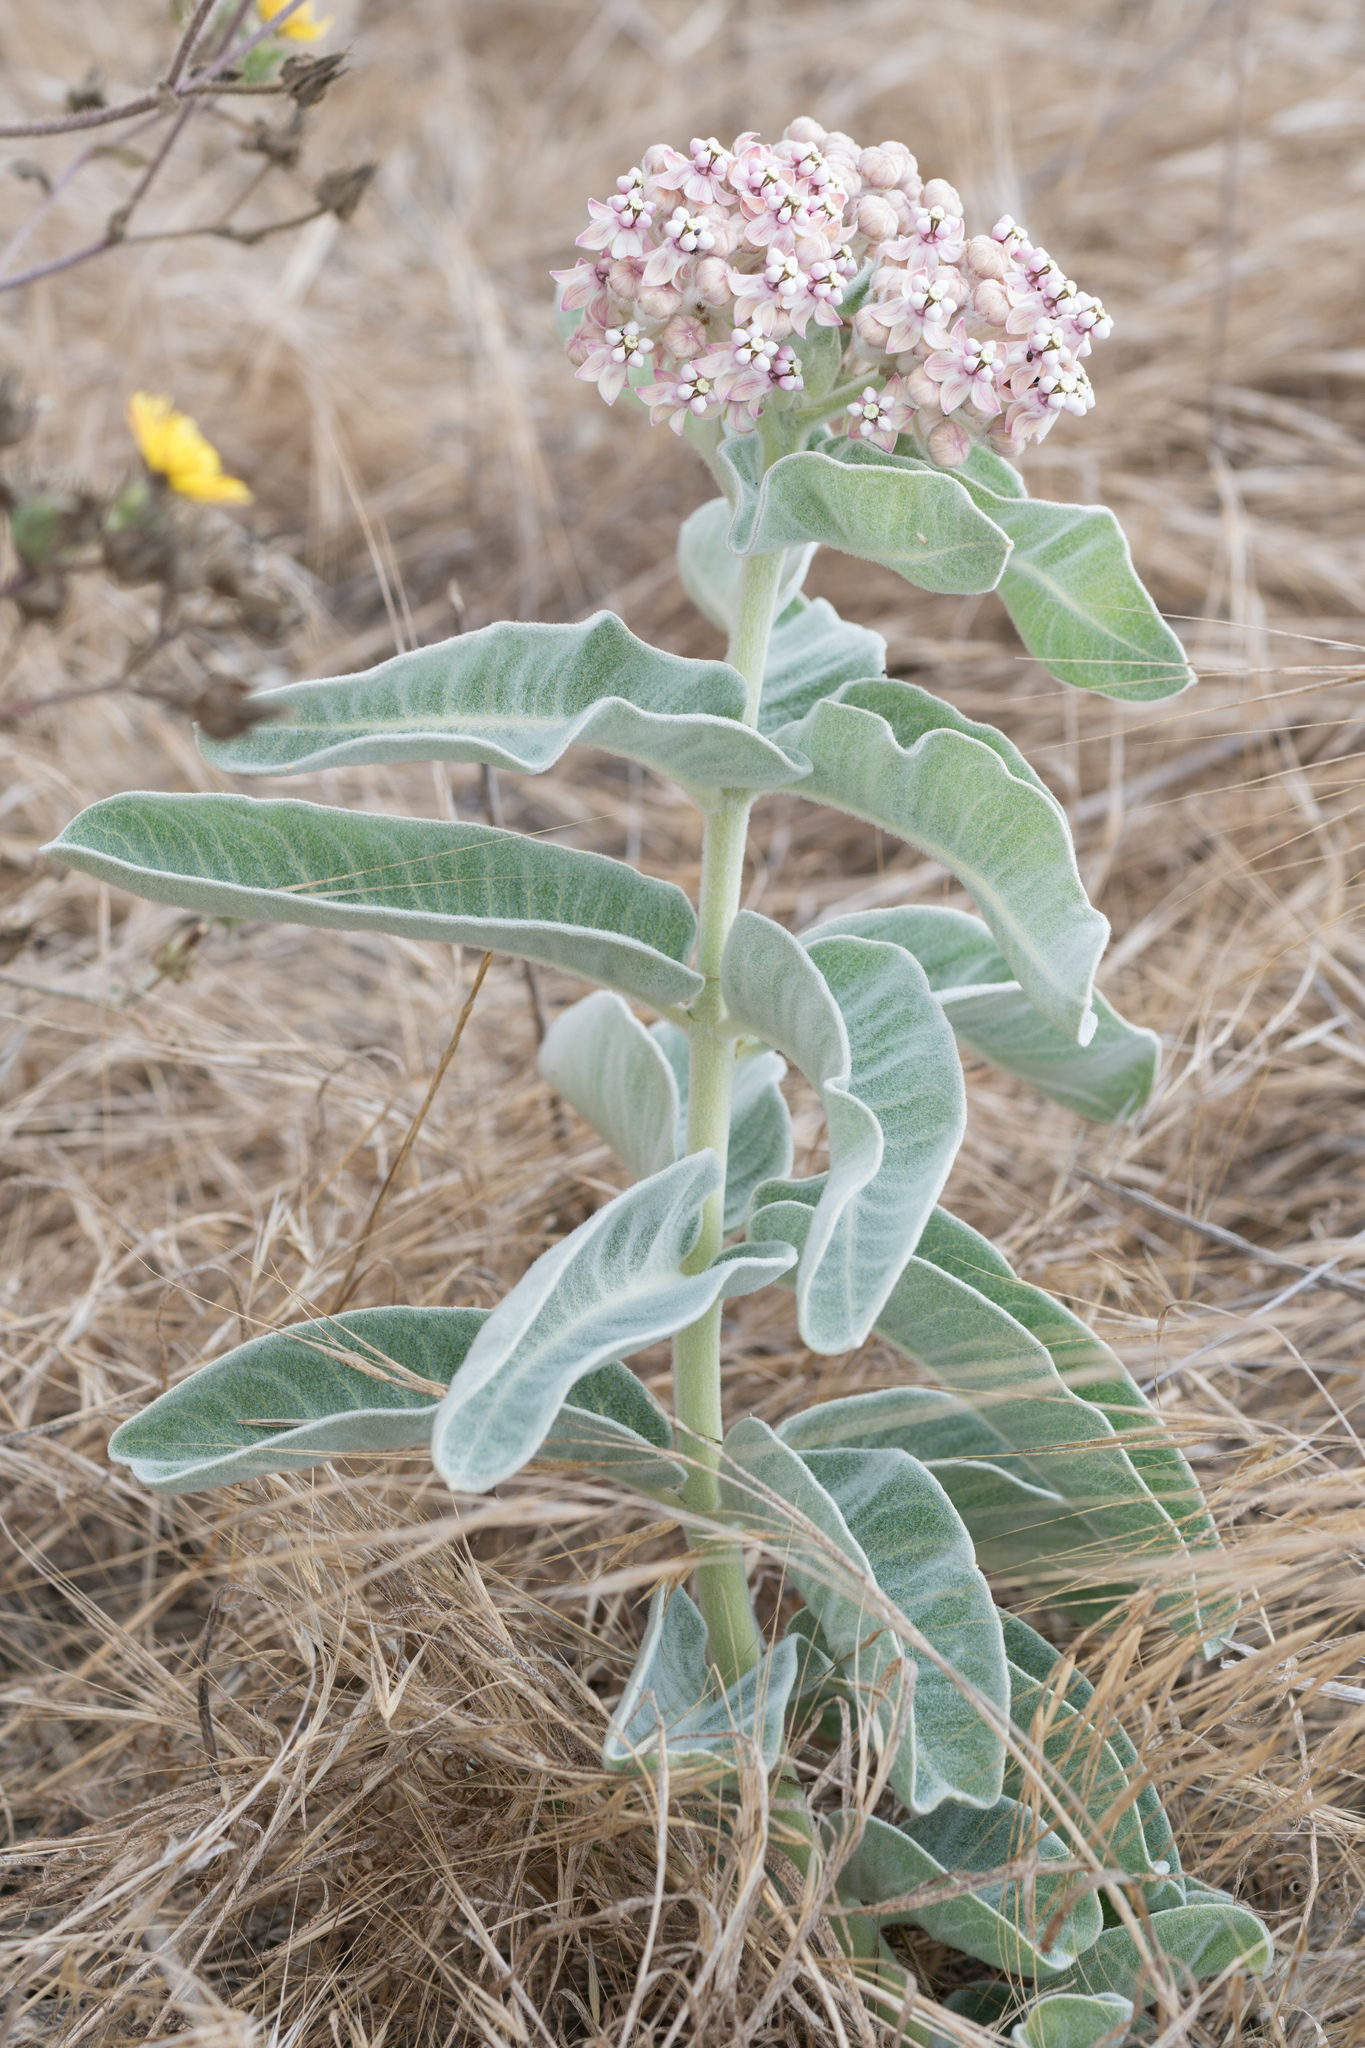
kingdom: Plantae
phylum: Tracheophyta
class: Magnoliopsida
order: Gentianales
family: Apocynaceae
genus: Asclepias
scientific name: Asclepias eriocarpa
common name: Indian milkweed
